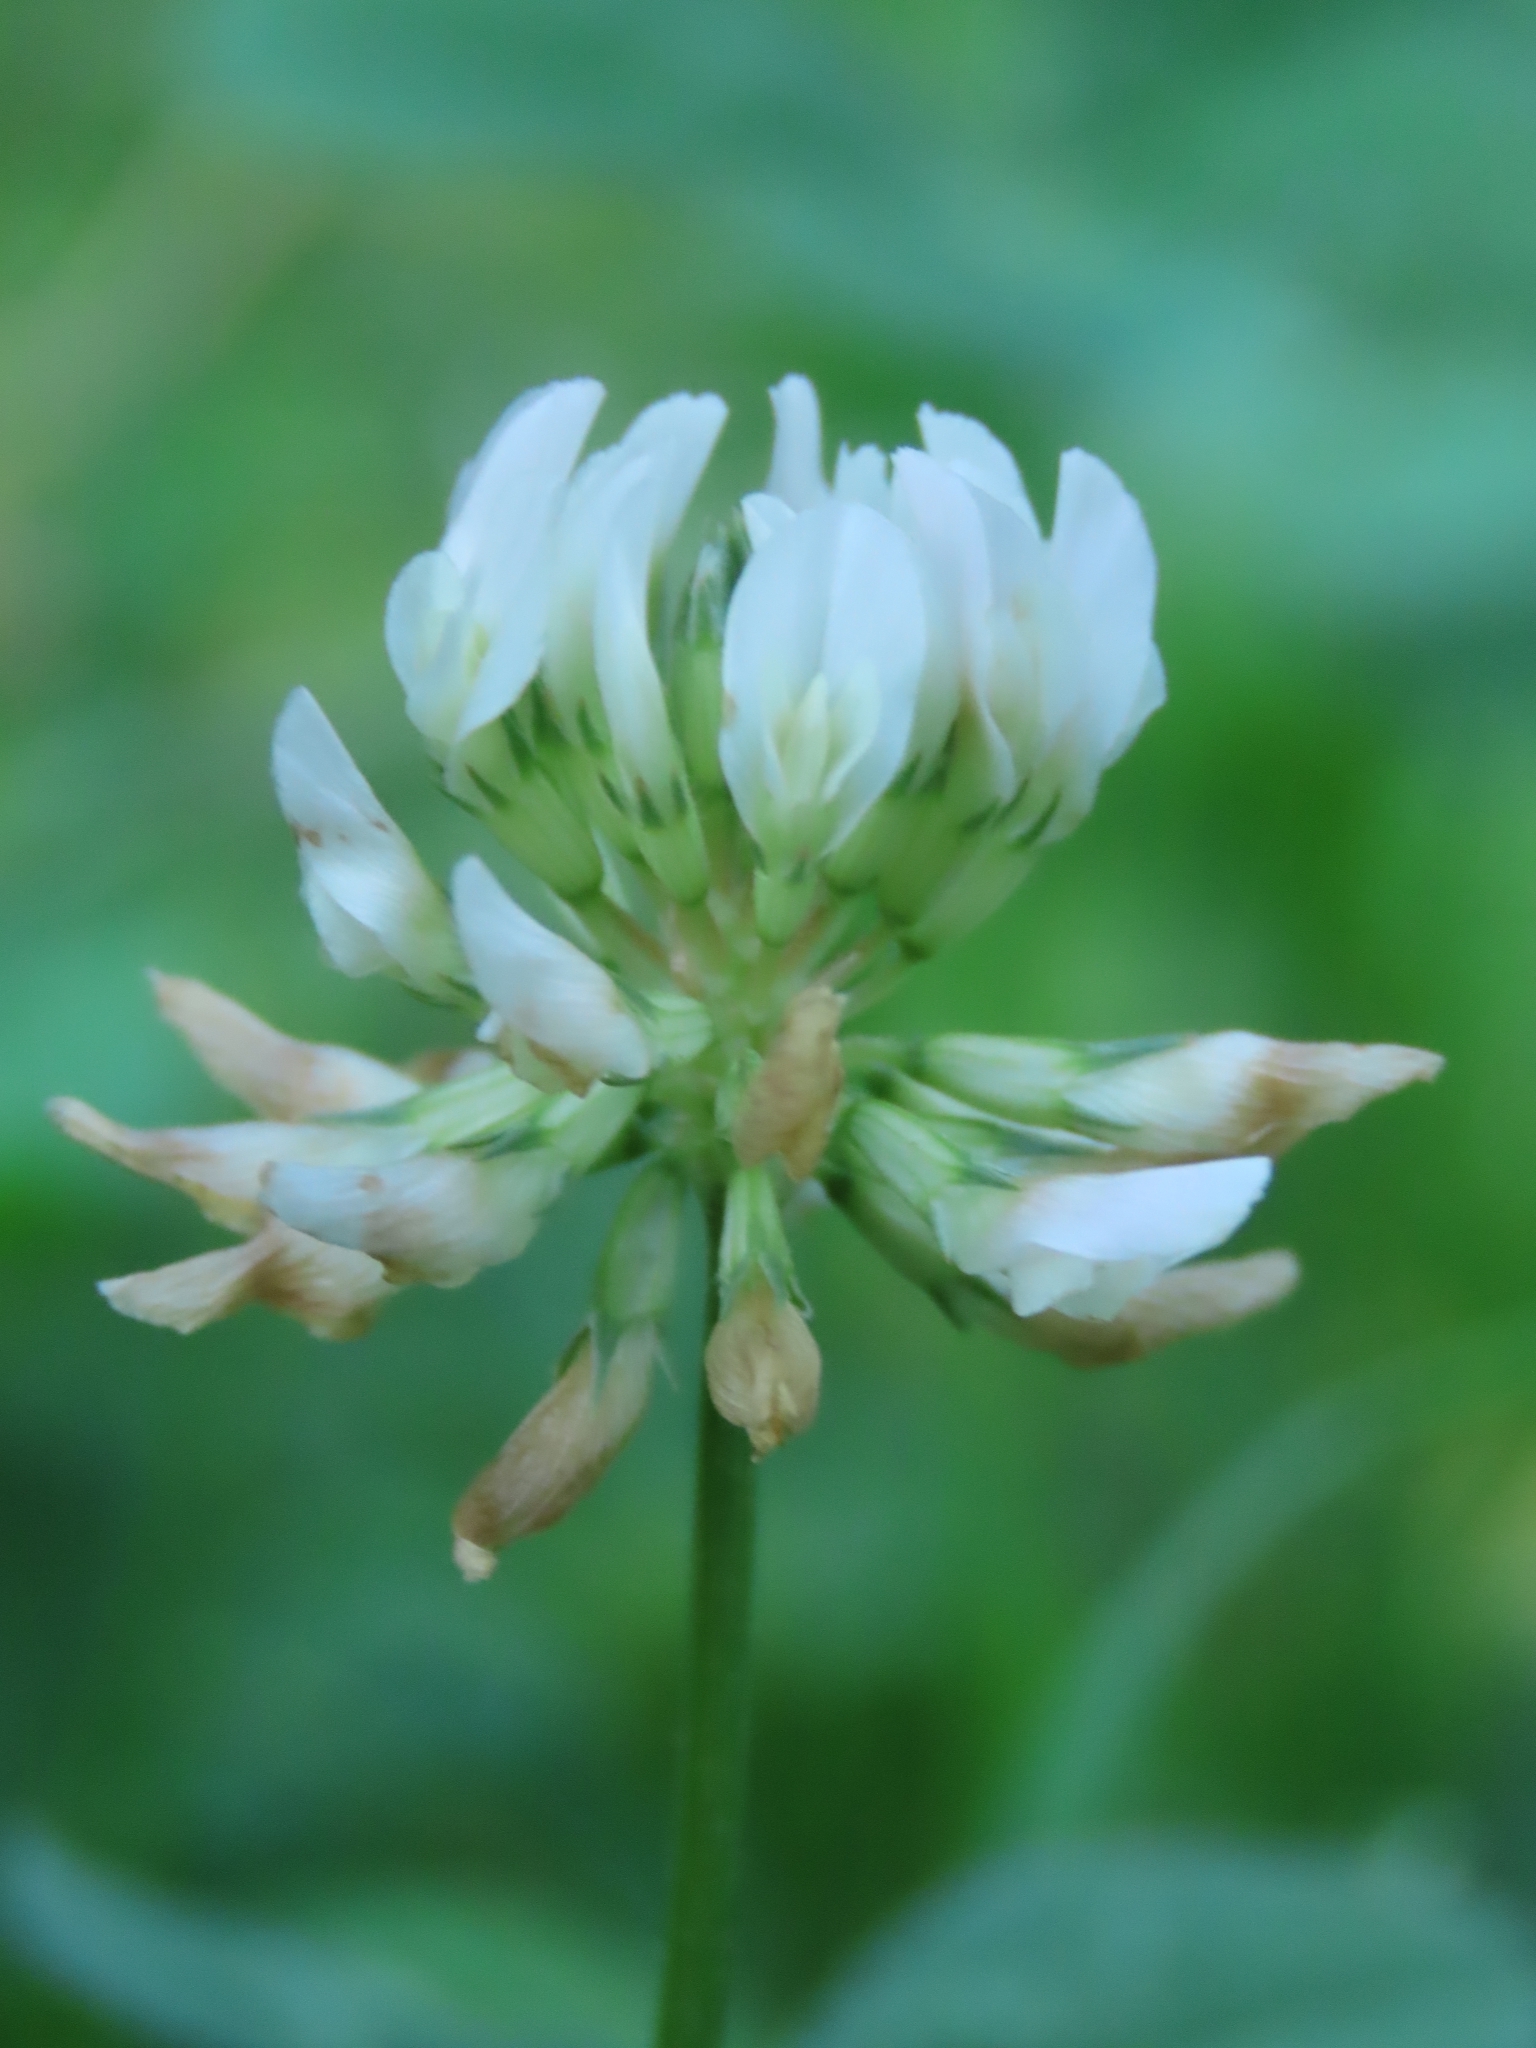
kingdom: Plantae
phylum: Tracheophyta
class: Magnoliopsida
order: Fabales
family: Fabaceae
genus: Trifolium
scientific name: Trifolium repens
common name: White clover
